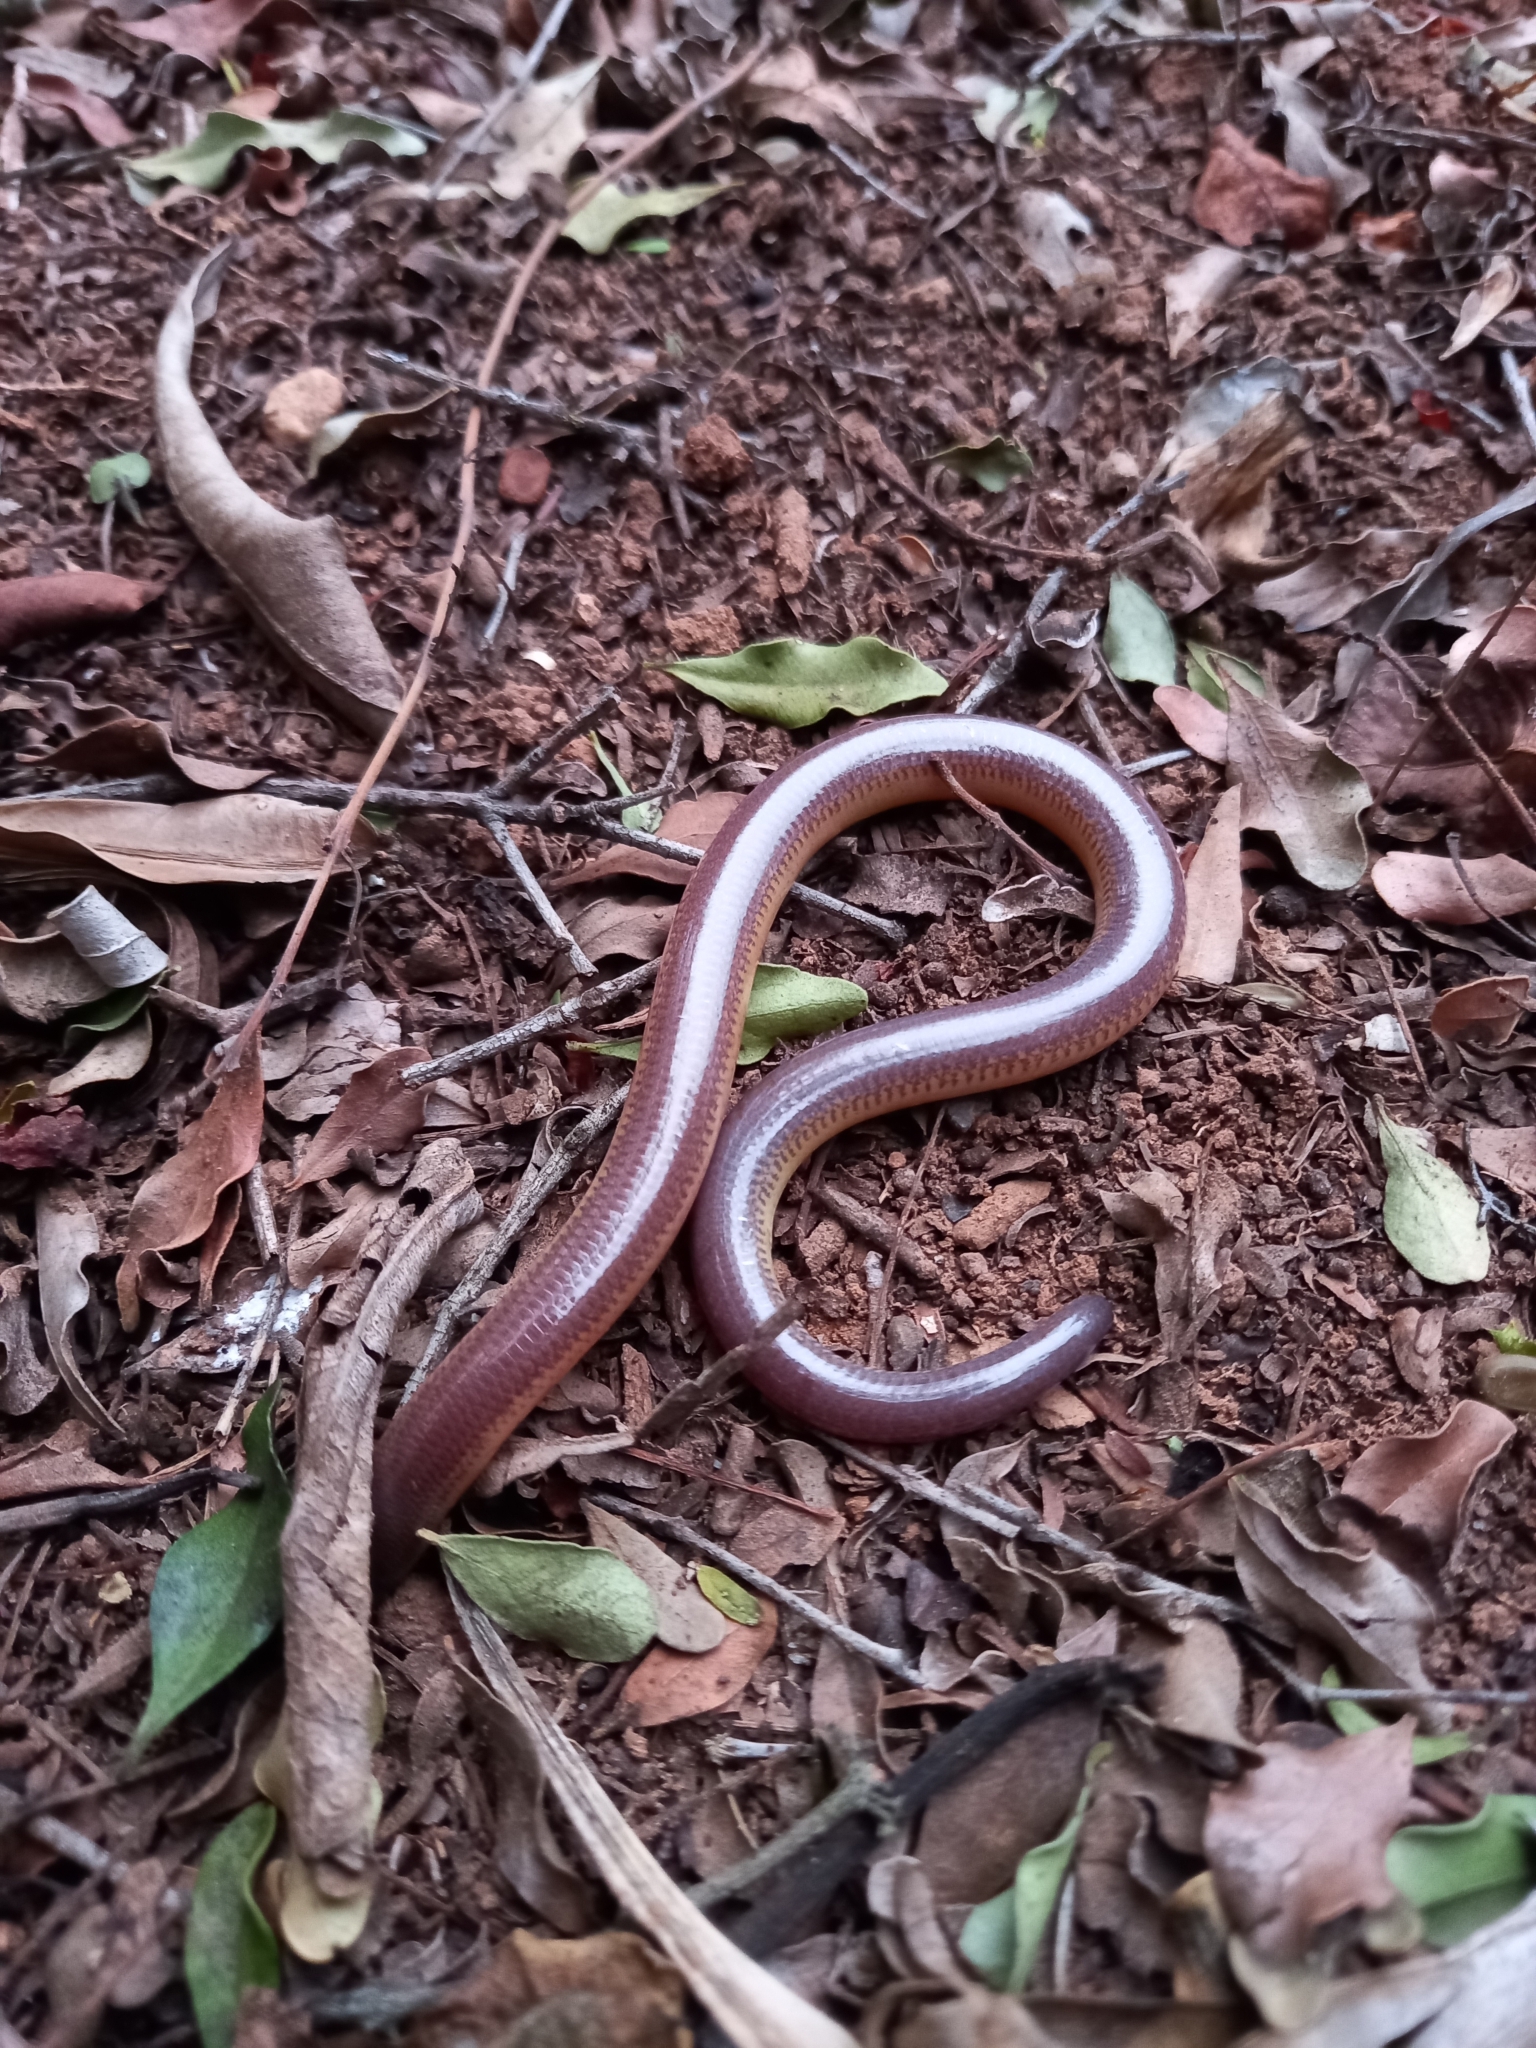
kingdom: Animalia
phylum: Chordata
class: Squamata
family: Scincidae
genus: Acontias
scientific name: Acontias orientalis
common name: Eastern cape legless skink
